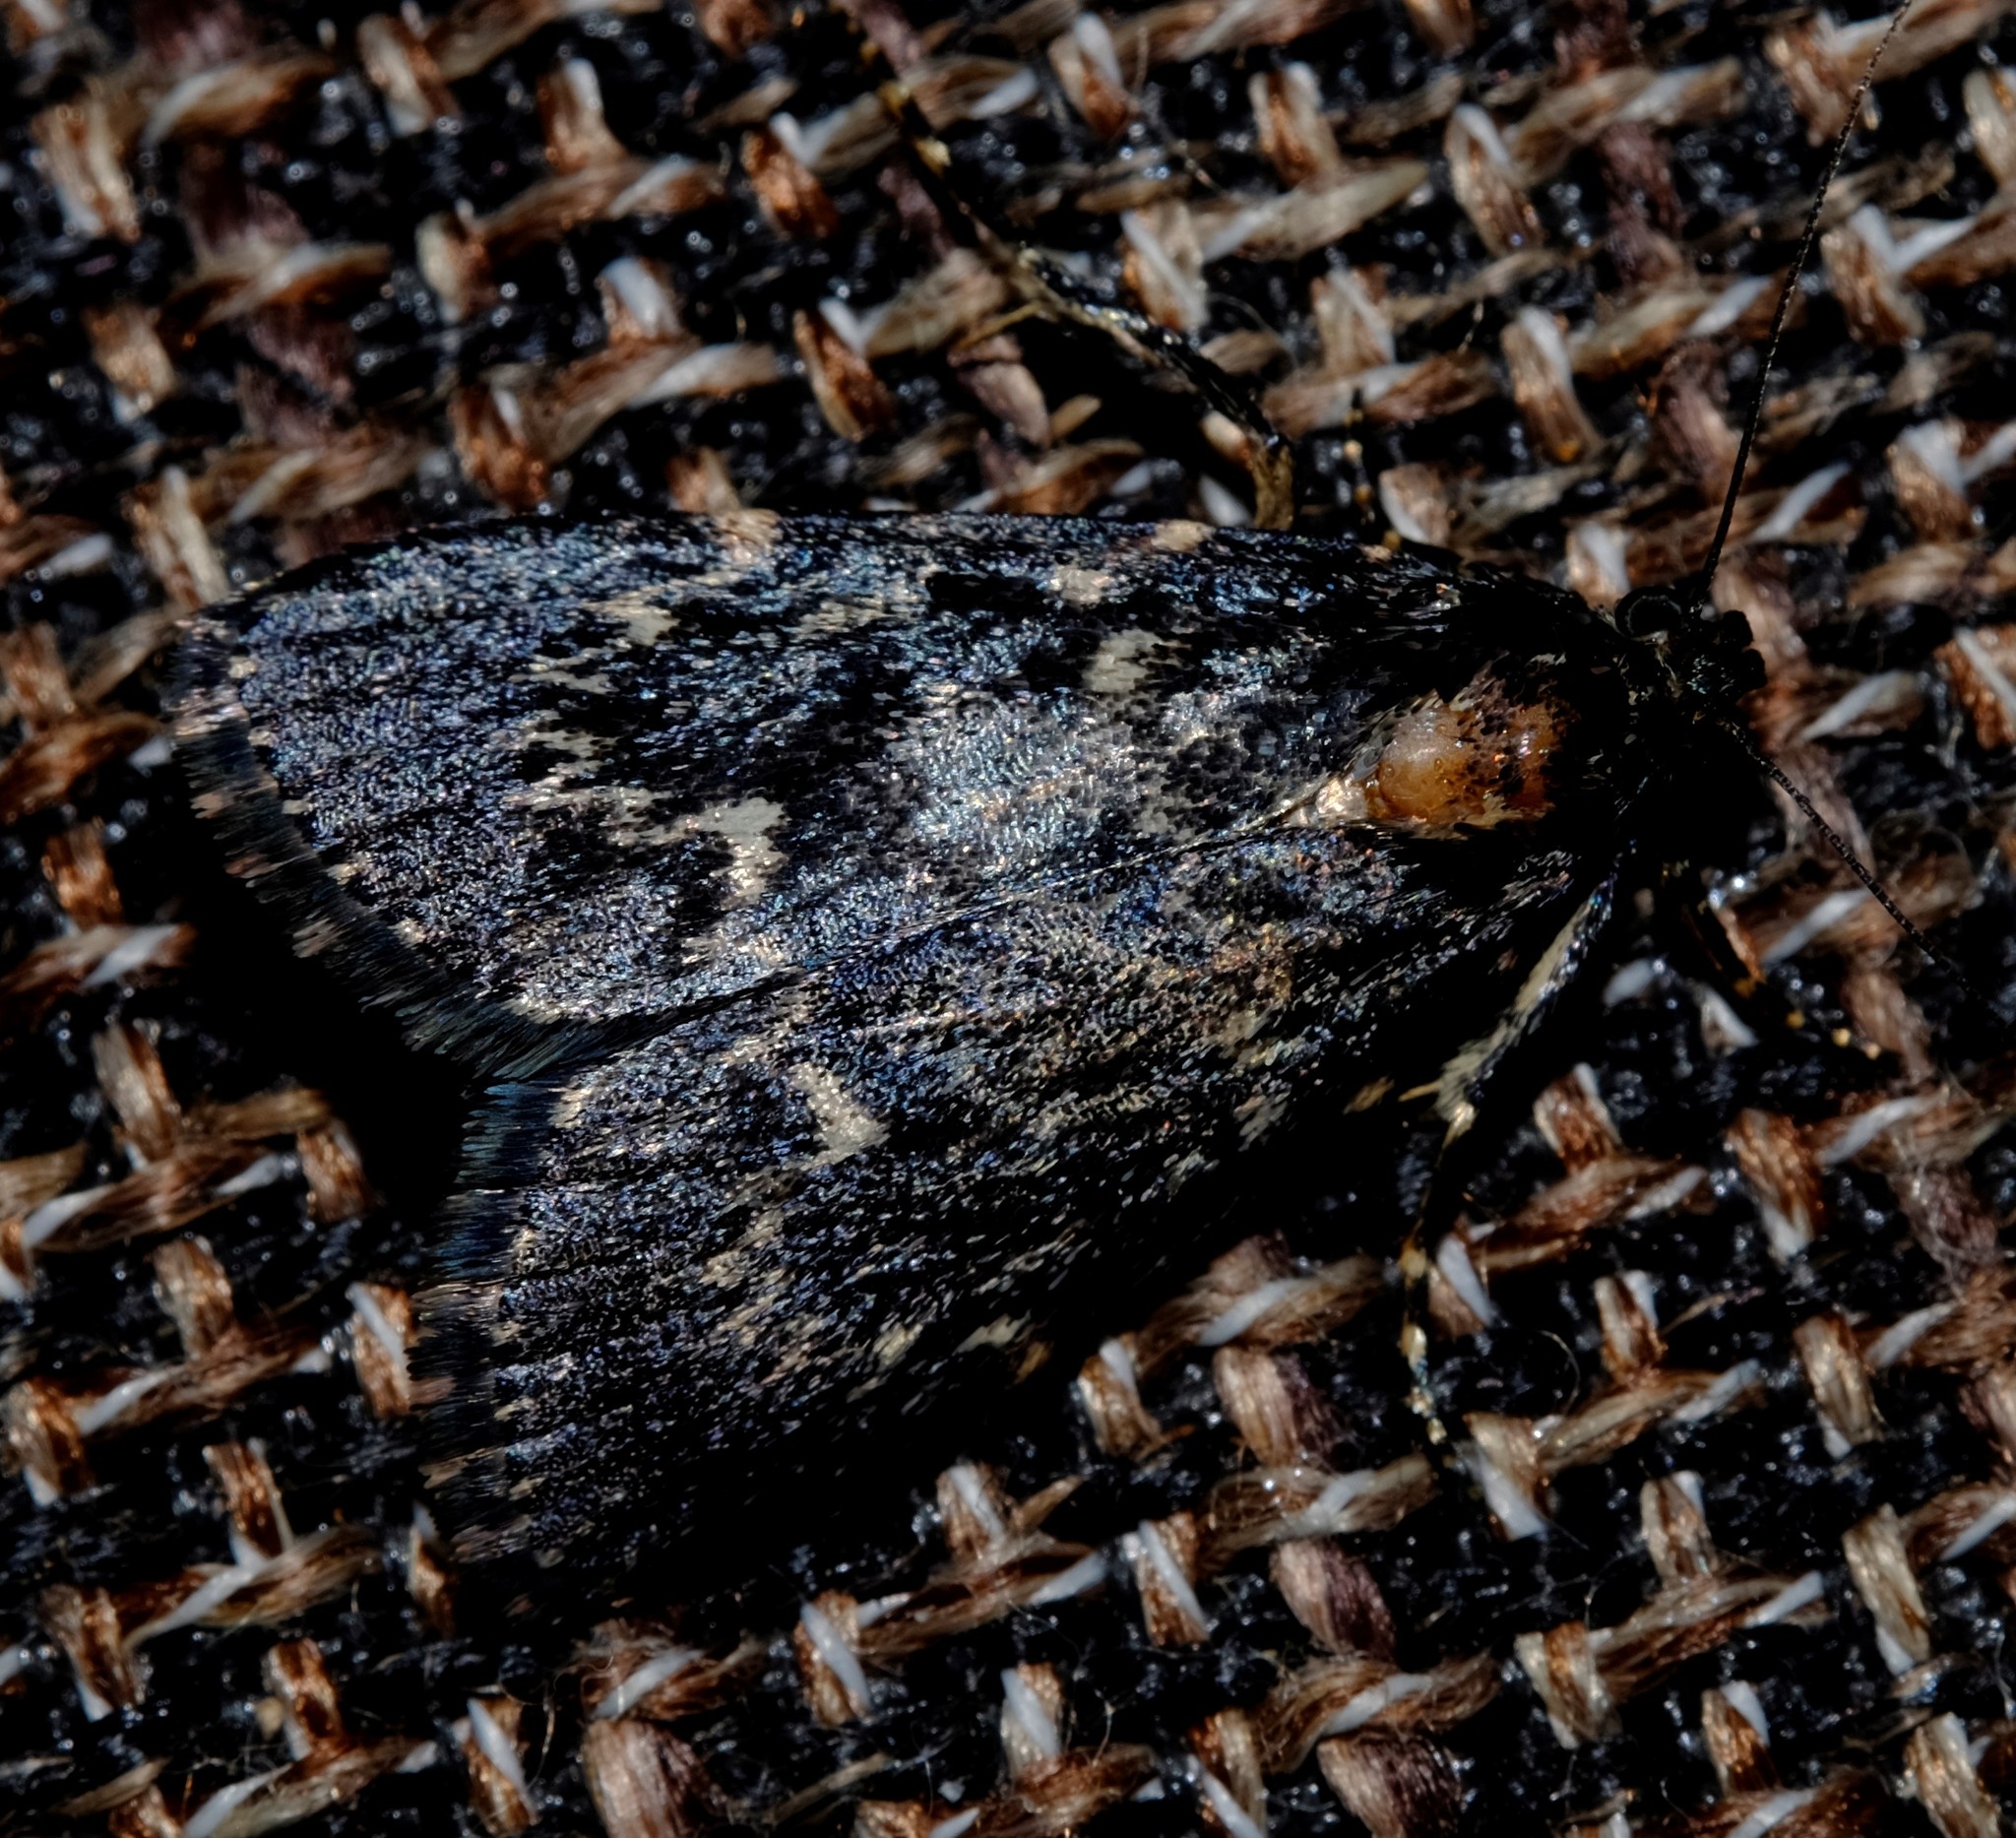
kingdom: Animalia
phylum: Arthropoda
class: Insecta
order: Lepidoptera
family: Pyralidae
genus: Stericta
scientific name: Stericta carbonalis
